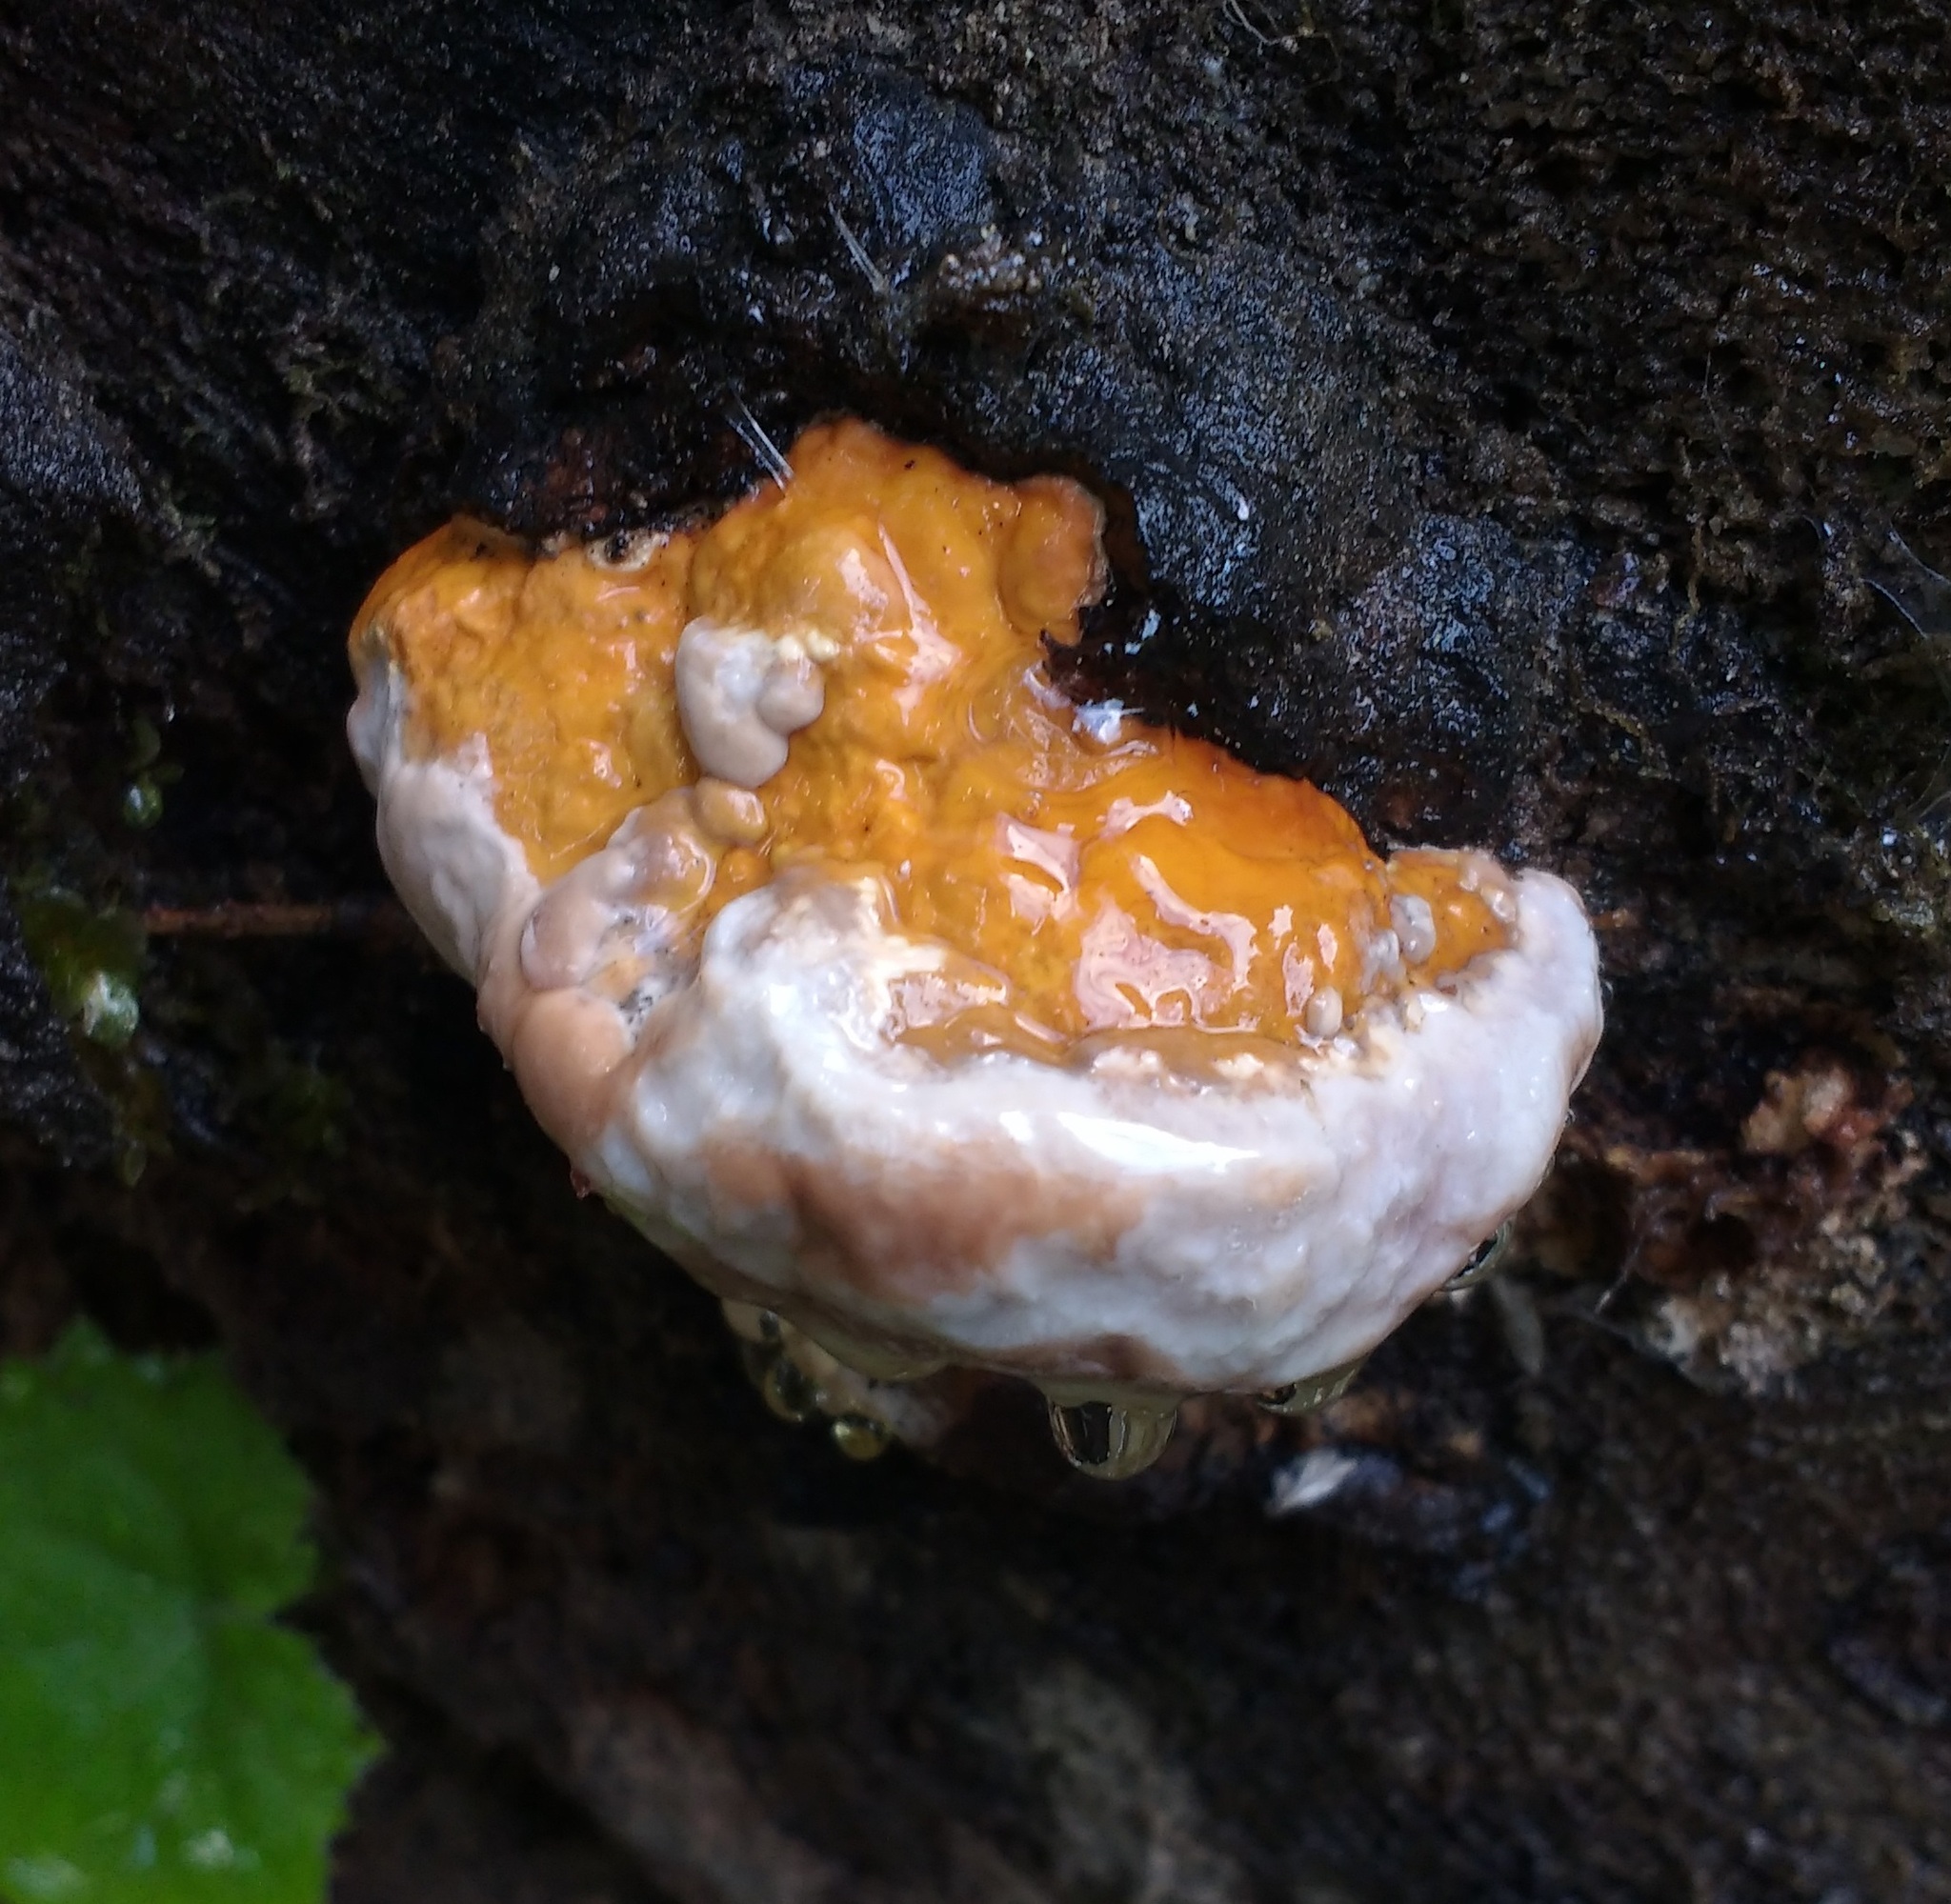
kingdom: Fungi
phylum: Basidiomycota
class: Agaricomycetes
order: Polyporales
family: Fomitopsidaceae
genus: Fomitopsis
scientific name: Fomitopsis pinicola
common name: Red-belted bracket
